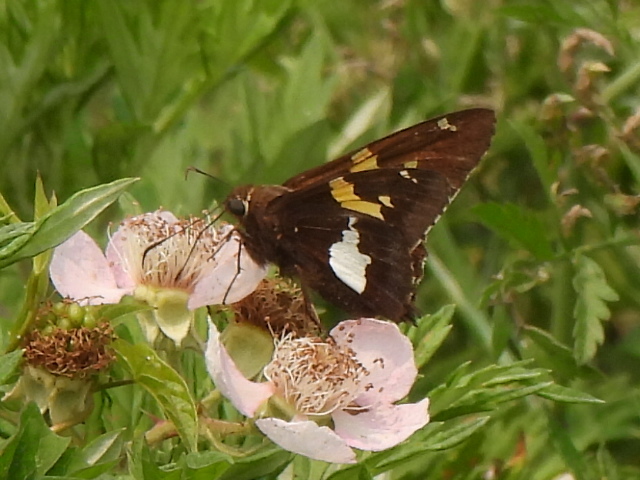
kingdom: Animalia
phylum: Arthropoda
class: Insecta
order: Lepidoptera
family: Hesperiidae
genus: Epargyreus
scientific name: Epargyreus clarus
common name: Silver-spotted skipper
